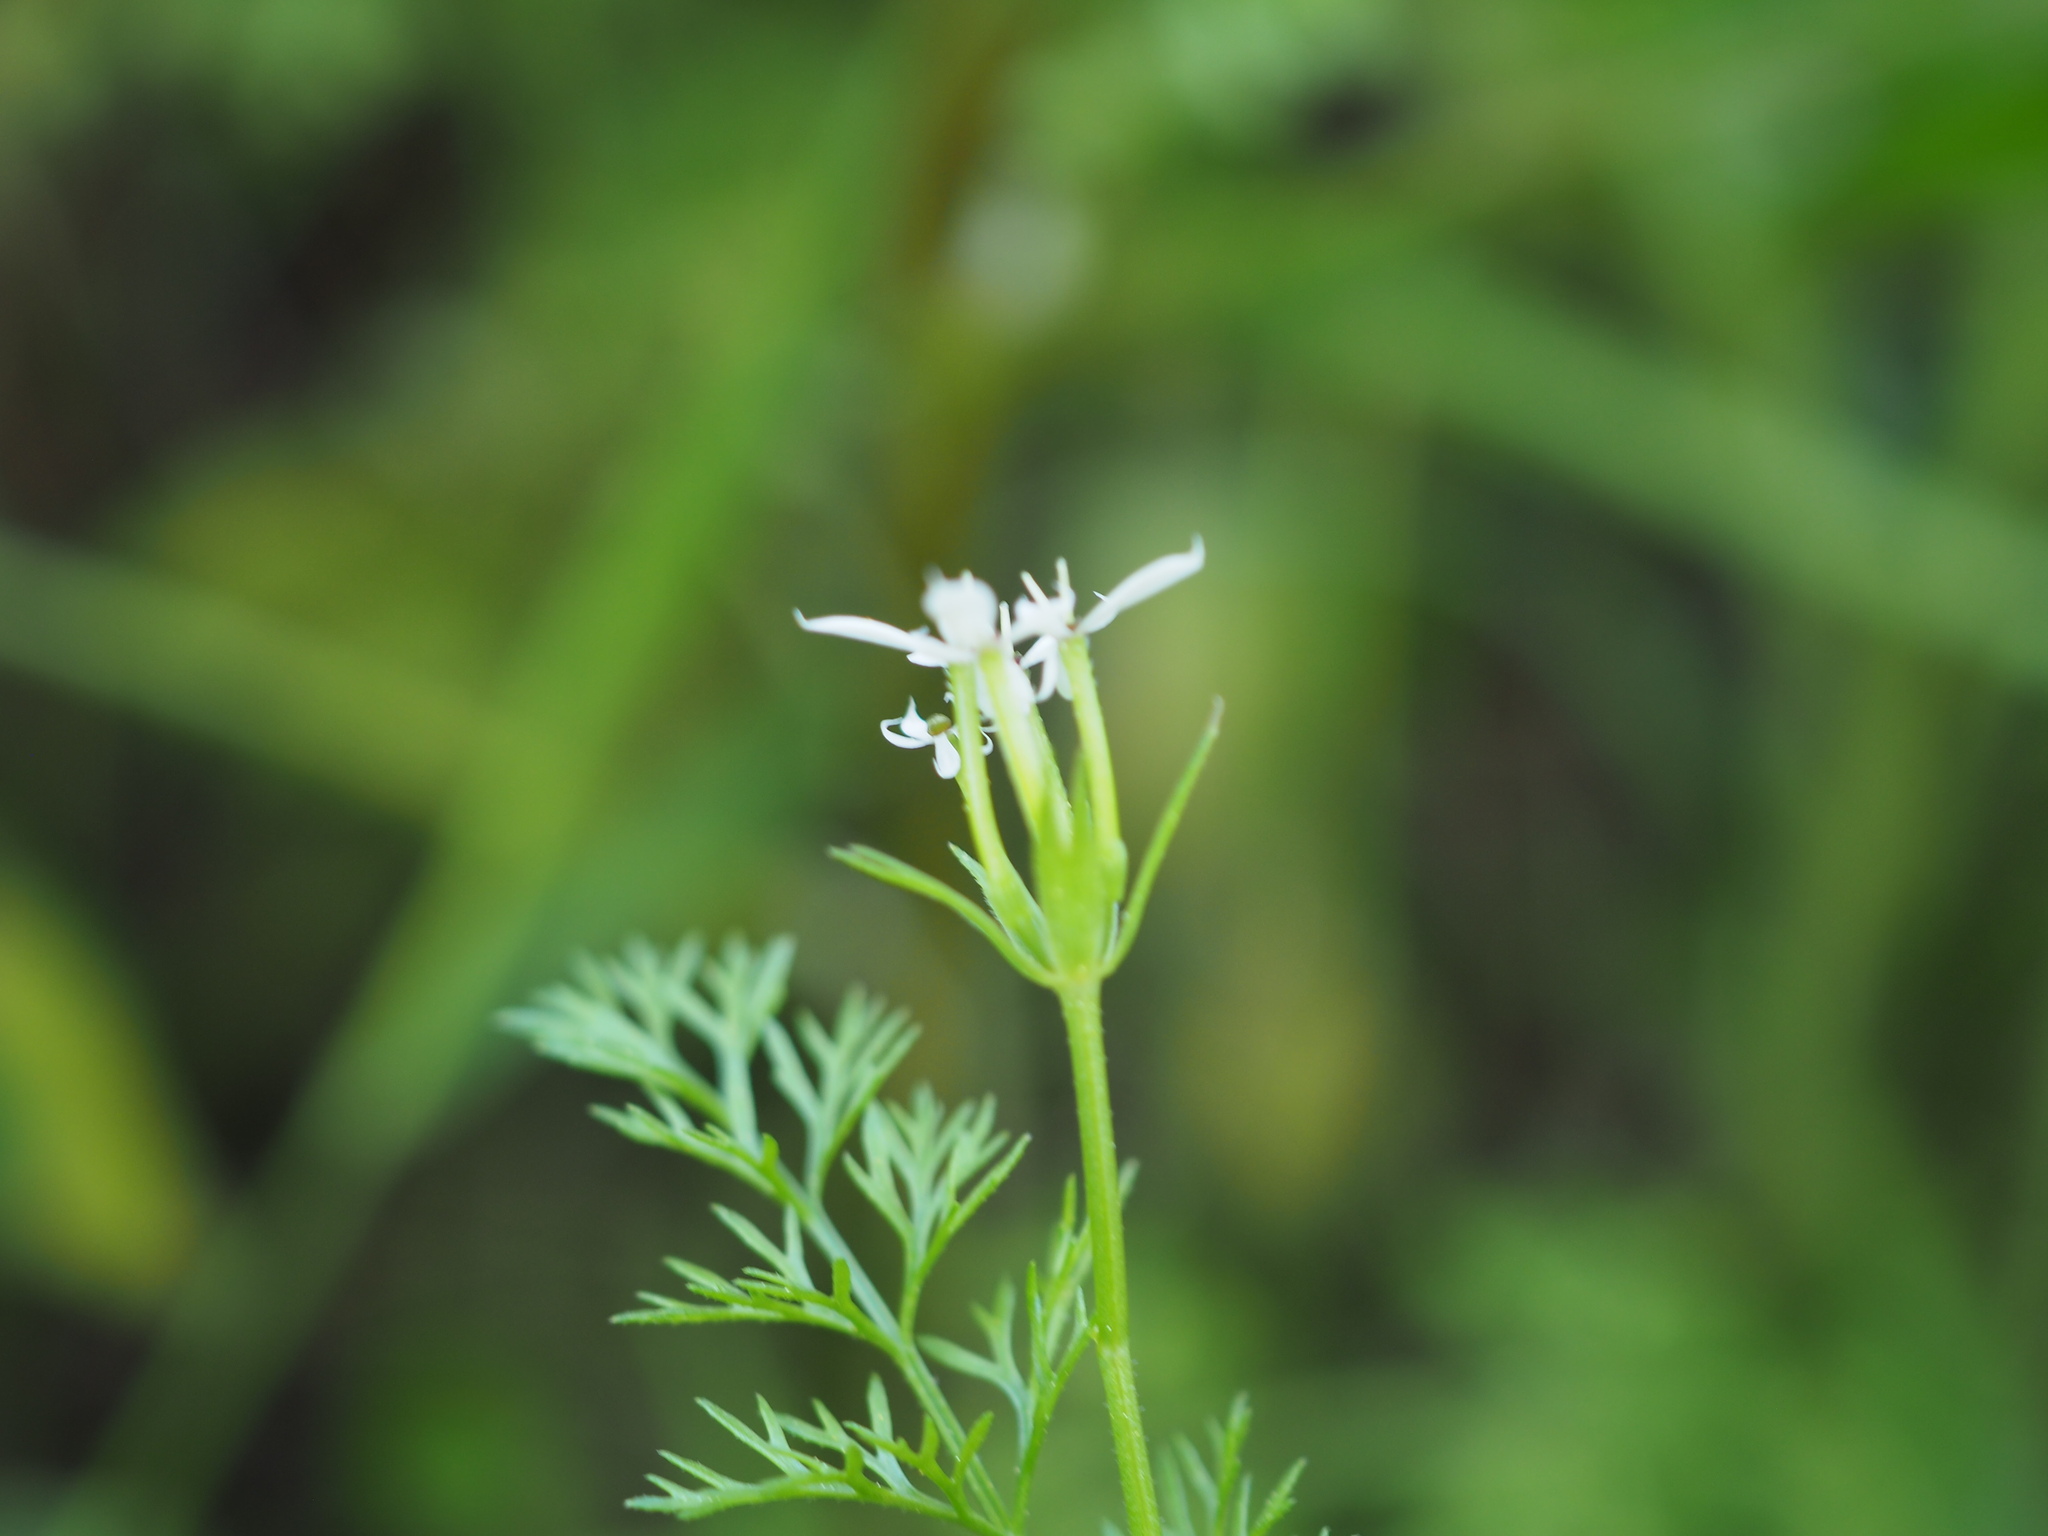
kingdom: Plantae
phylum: Tracheophyta
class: Magnoliopsida
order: Apiales
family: Apiaceae
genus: Scandix
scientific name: Scandix pecten-veneris
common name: Shepherd's-needle
